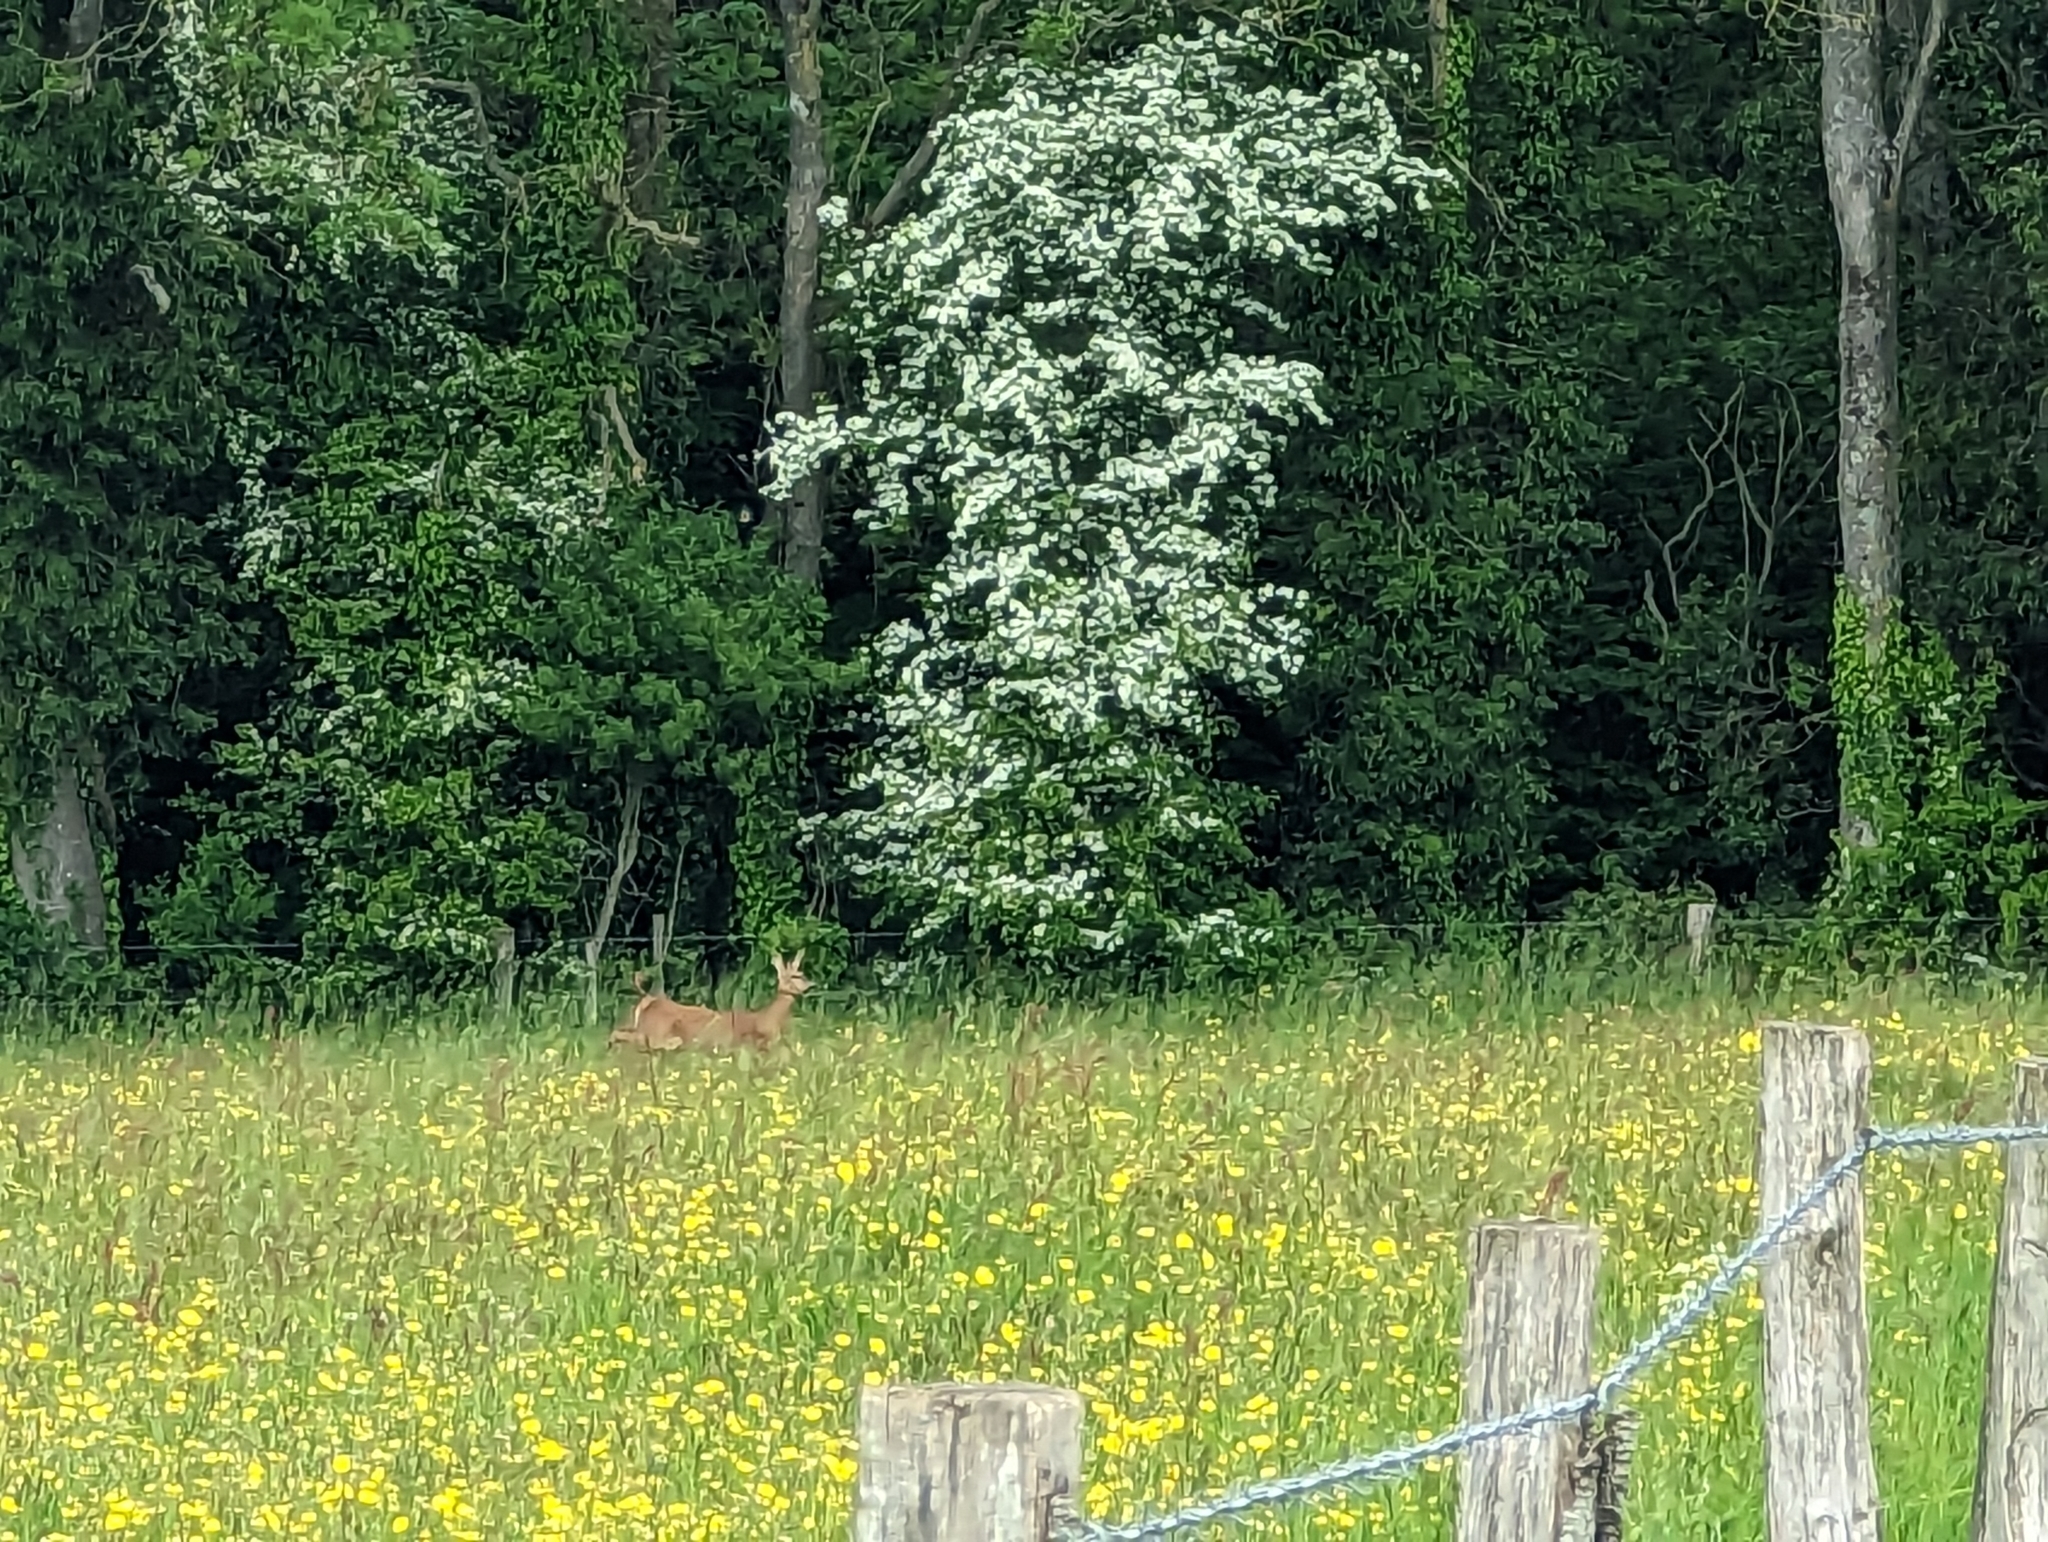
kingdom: Animalia
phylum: Chordata
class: Mammalia
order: Artiodactyla
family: Cervidae
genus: Capreolus
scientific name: Capreolus capreolus
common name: Western roe deer
